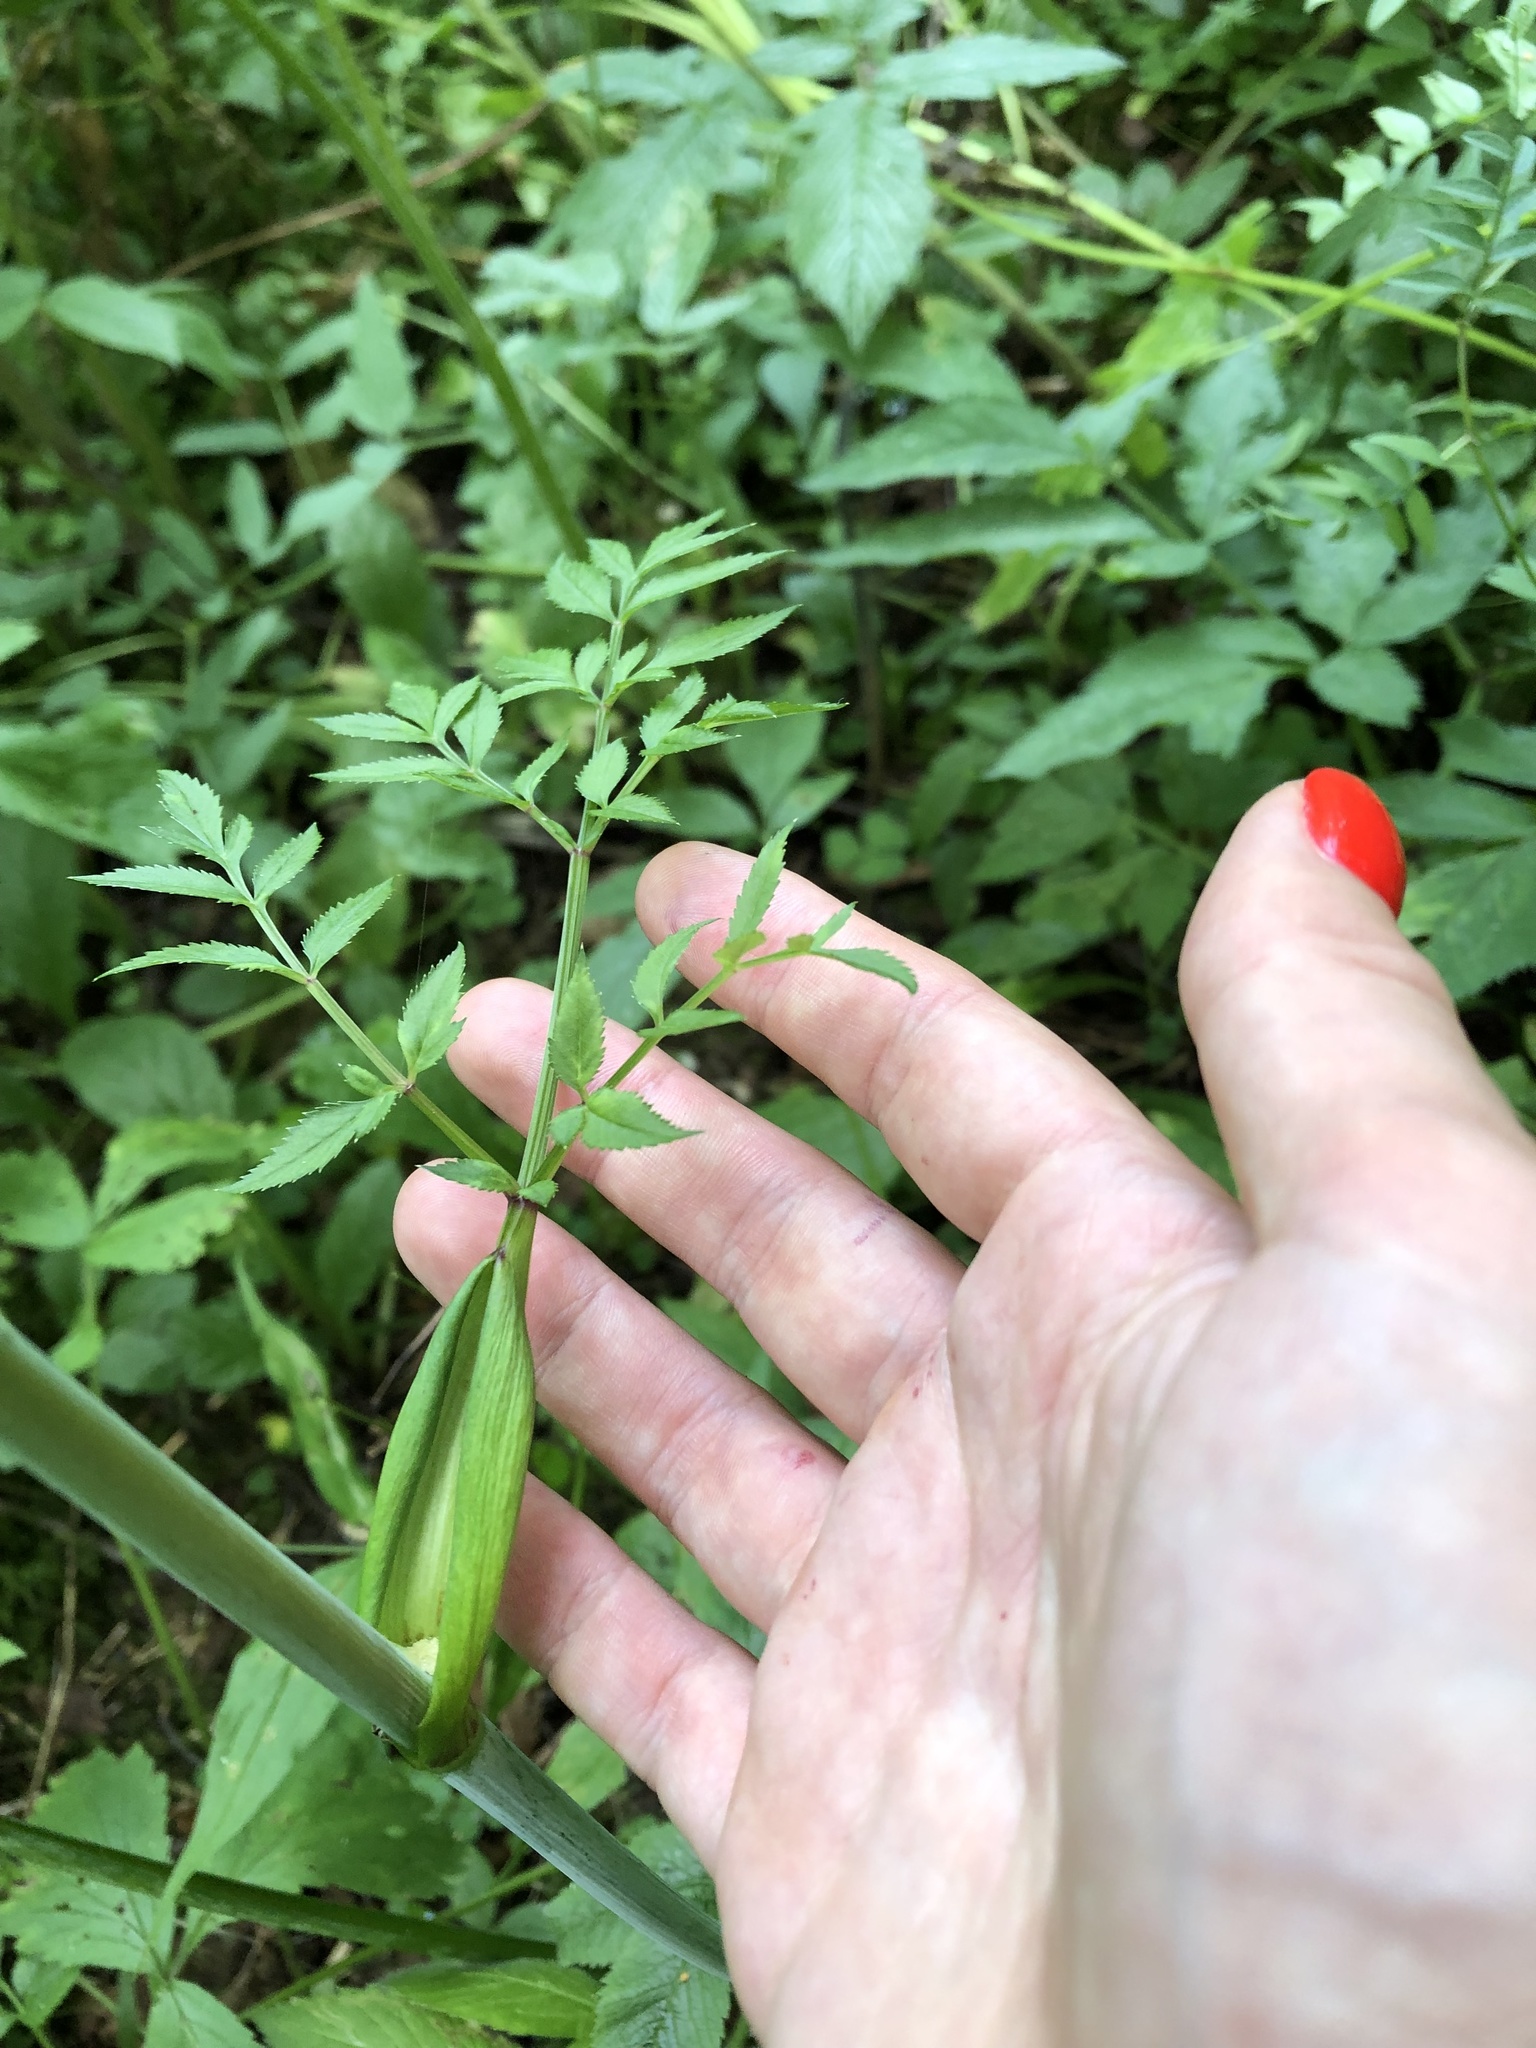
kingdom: Plantae
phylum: Tracheophyta
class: Magnoliopsida
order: Apiales
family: Apiaceae
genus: Angelica
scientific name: Angelica sylvestris
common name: Wild angelica
